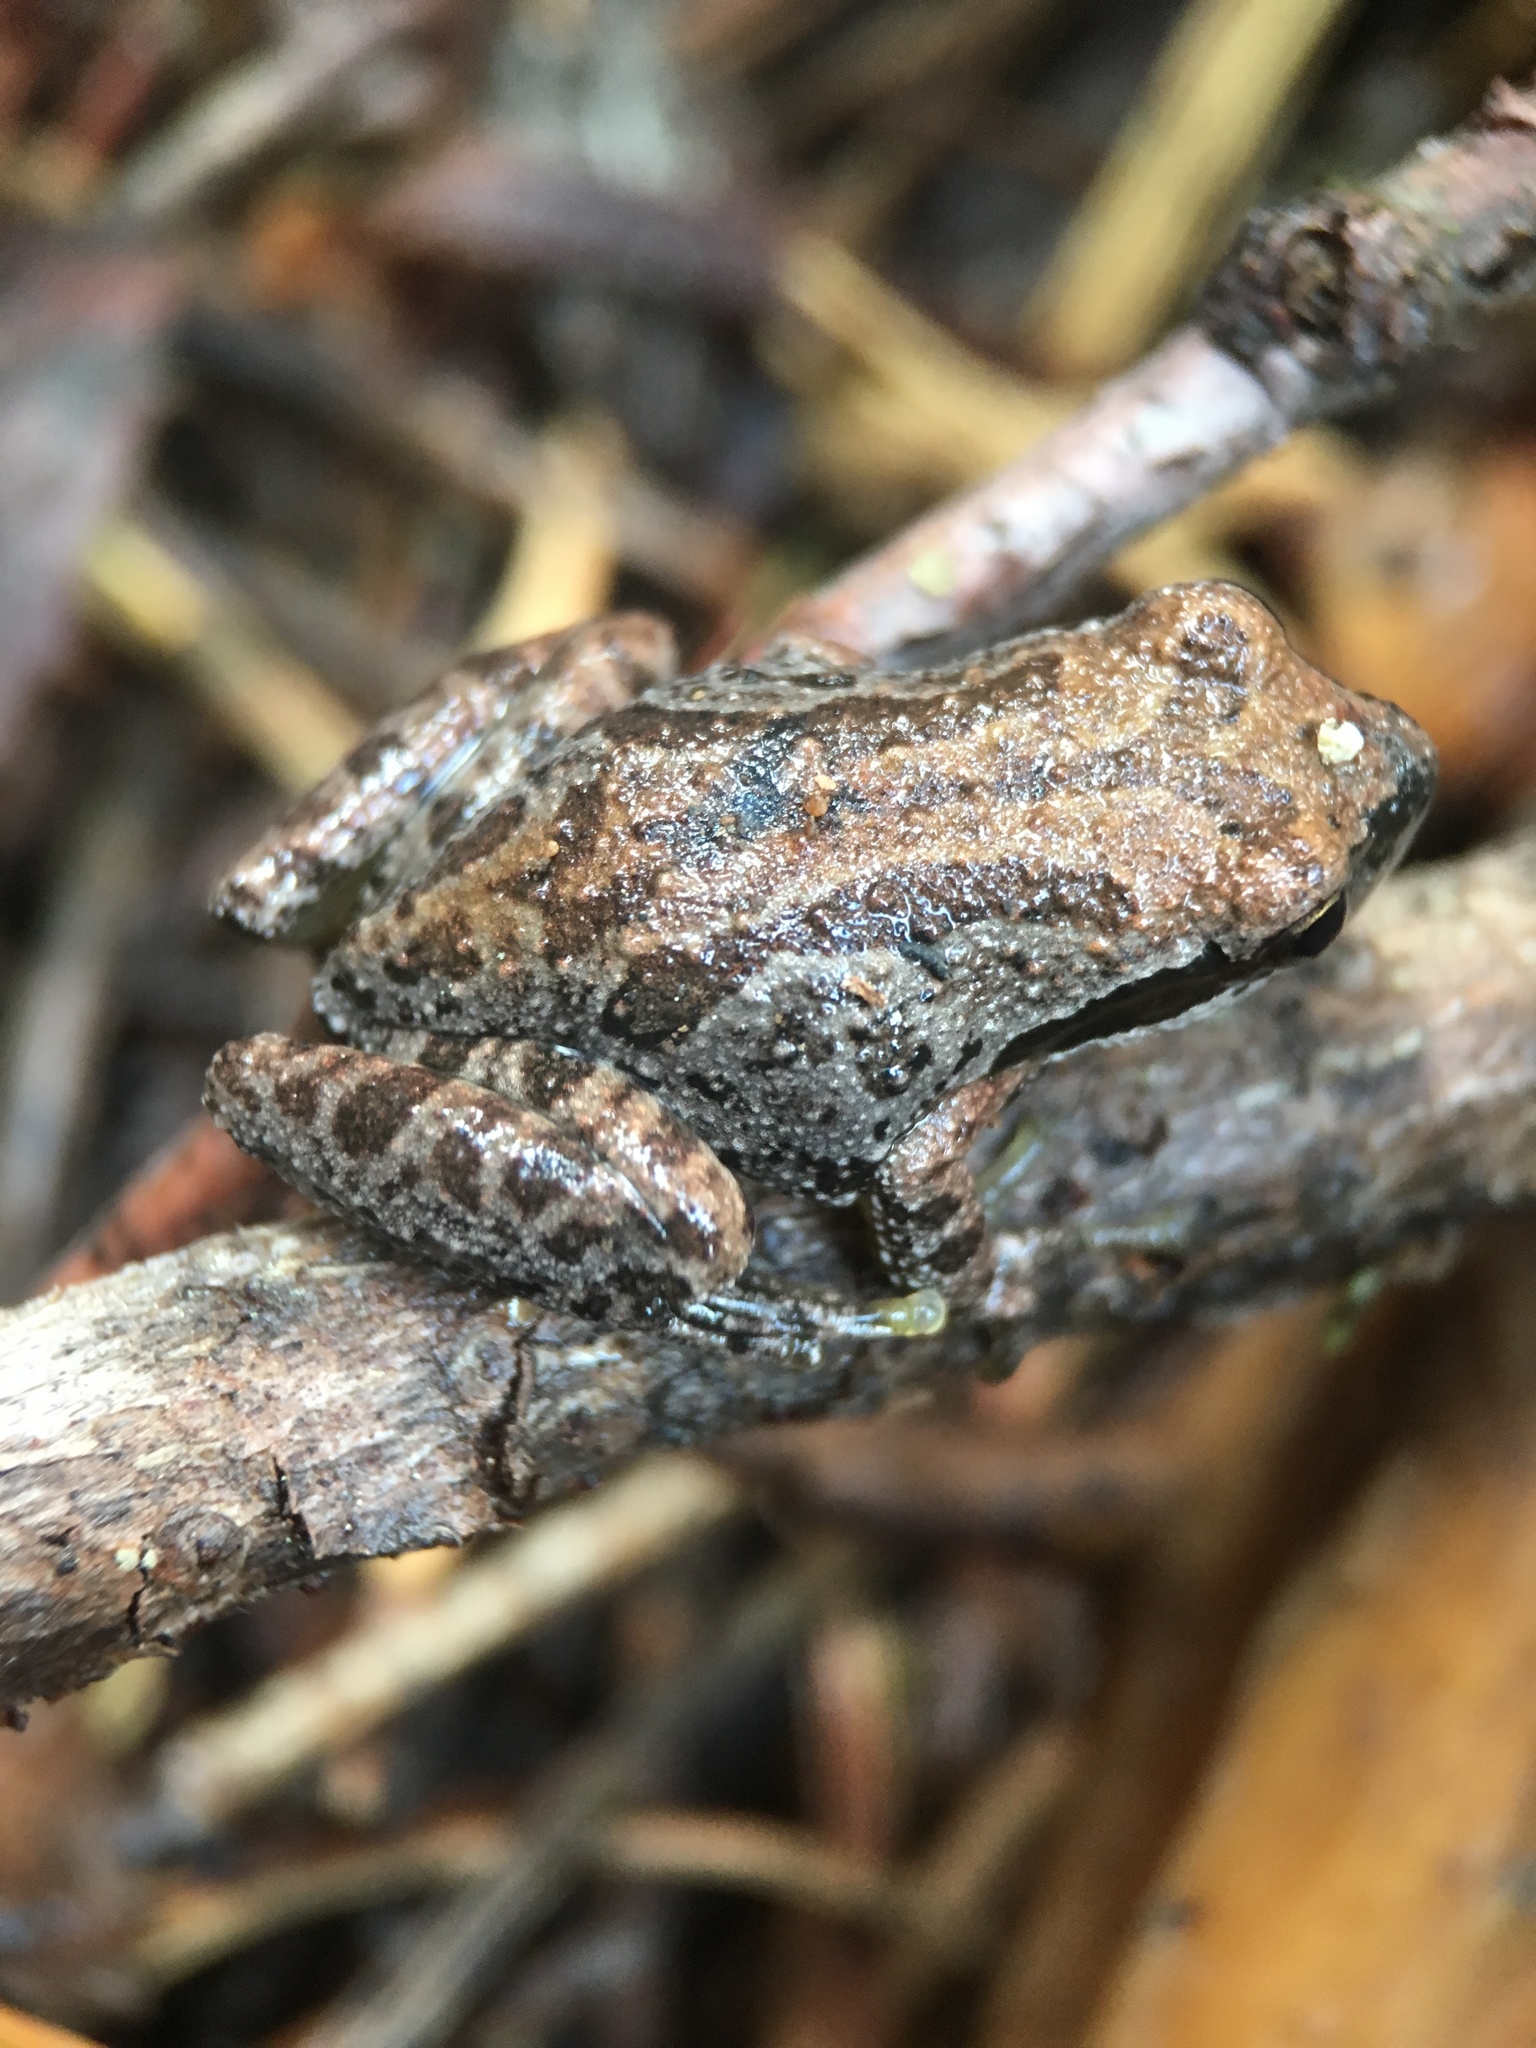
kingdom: Animalia
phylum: Chordata
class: Amphibia
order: Anura
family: Hylidae
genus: Pseudacris
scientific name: Pseudacris regilla
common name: Pacific chorus frog
